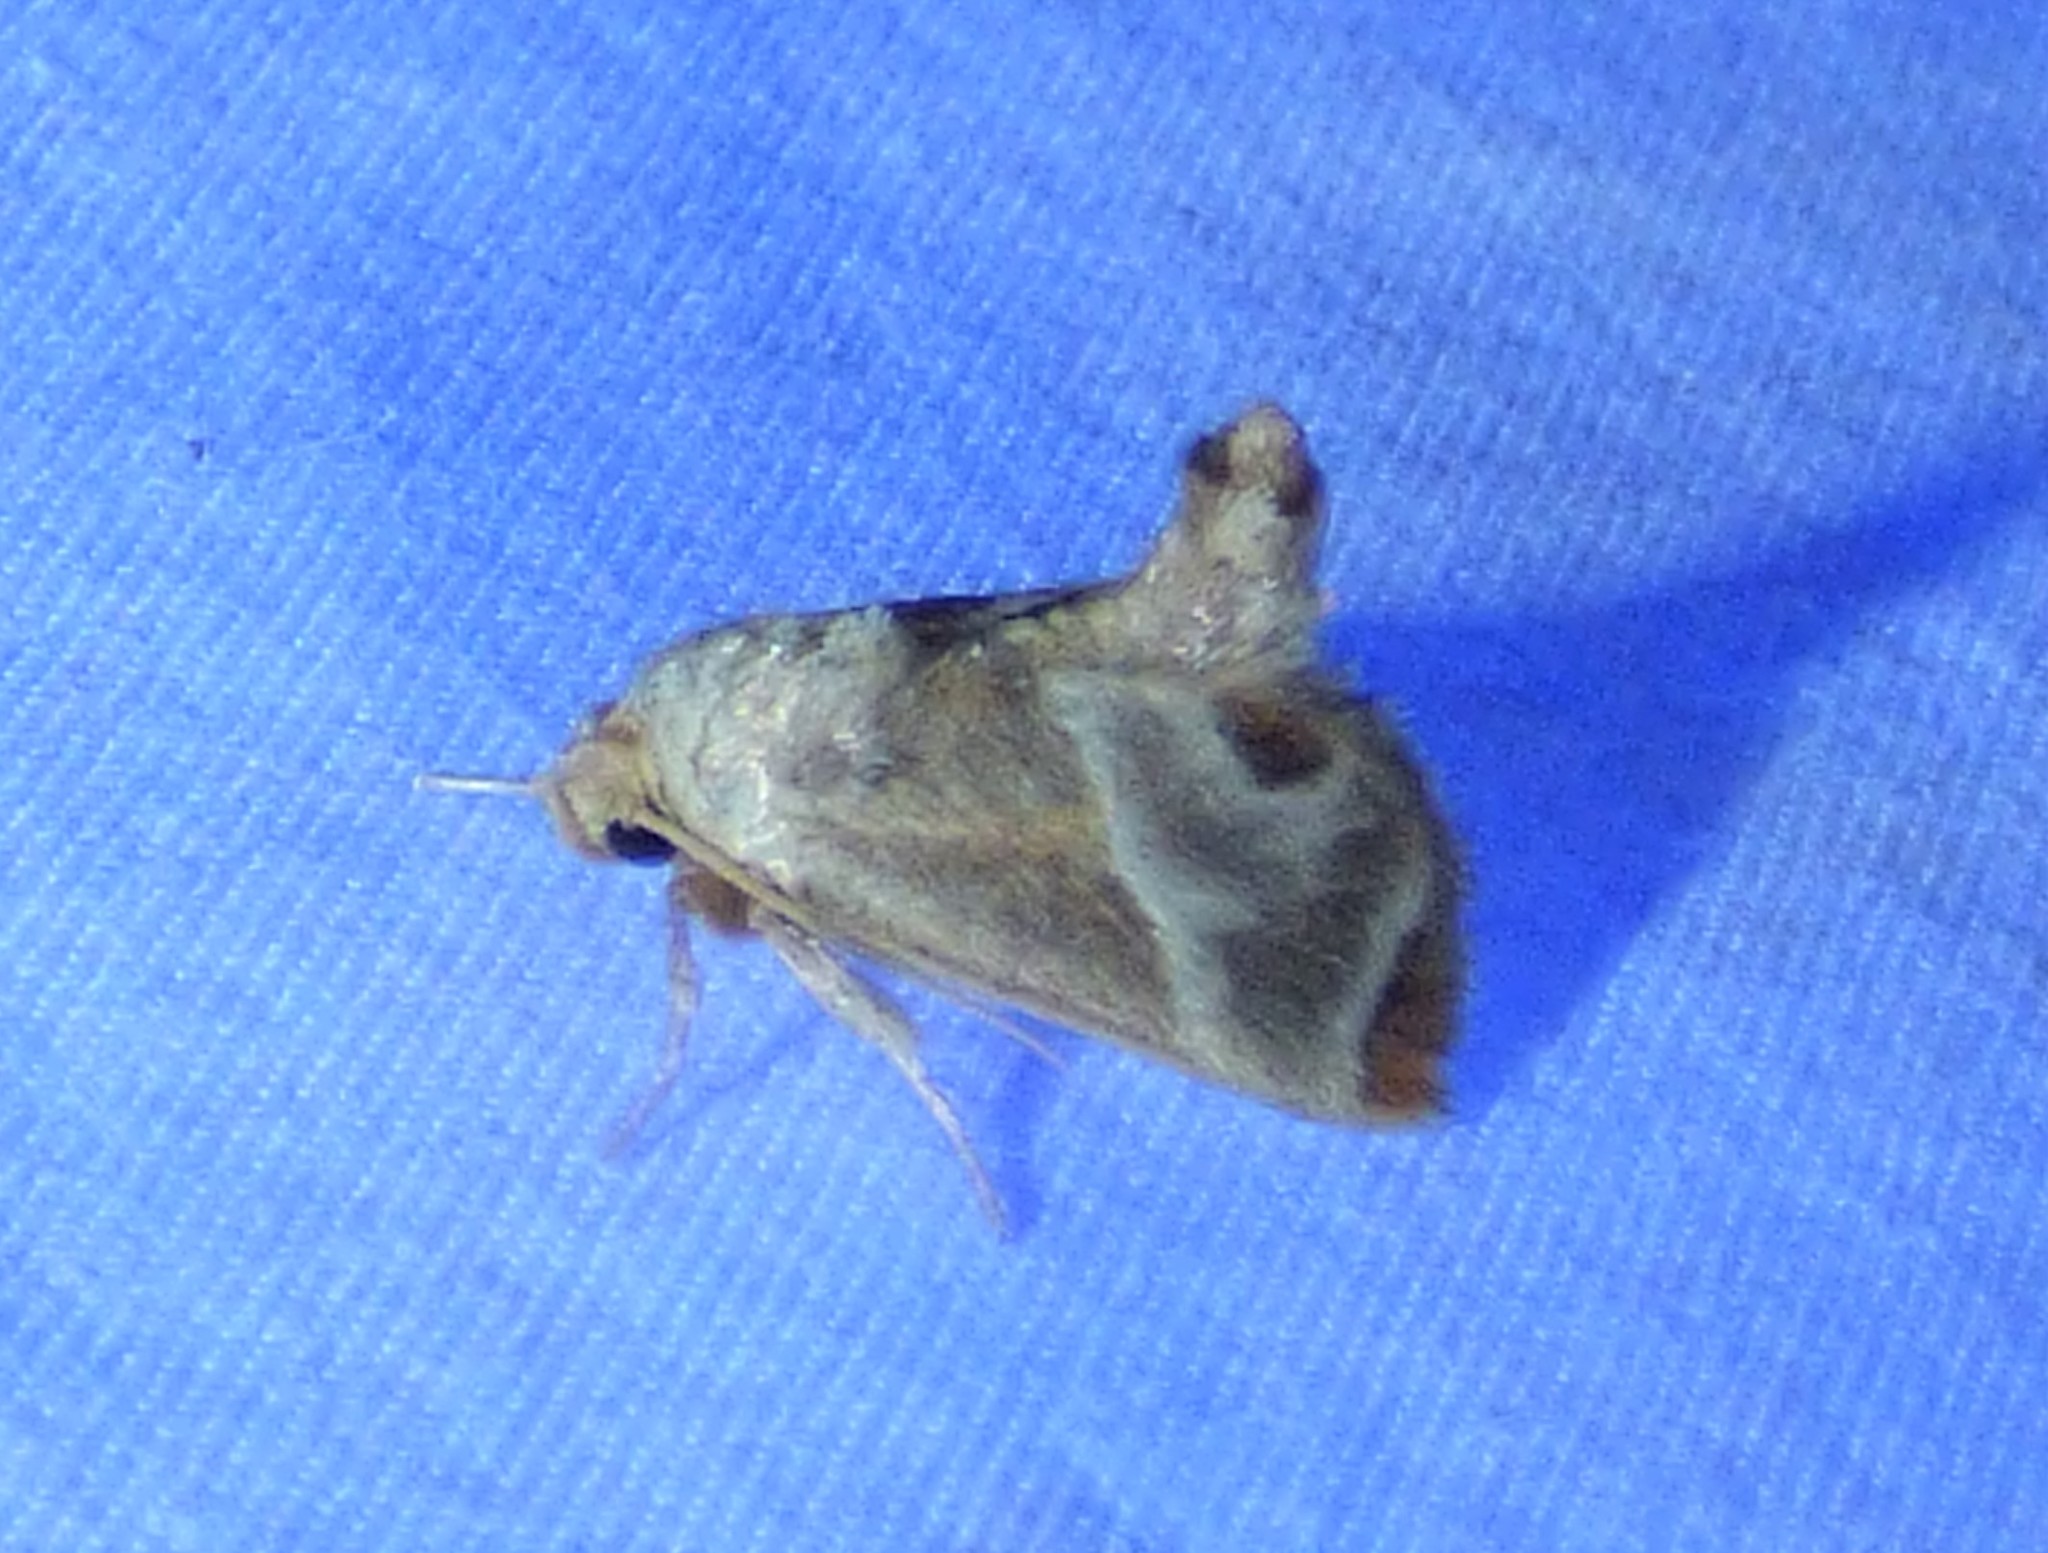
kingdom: Animalia
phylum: Arthropoda
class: Insecta
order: Lepidoptera
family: Limacodidae
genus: Apoda
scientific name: Apoda biguttata
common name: Shagreened slug moth
